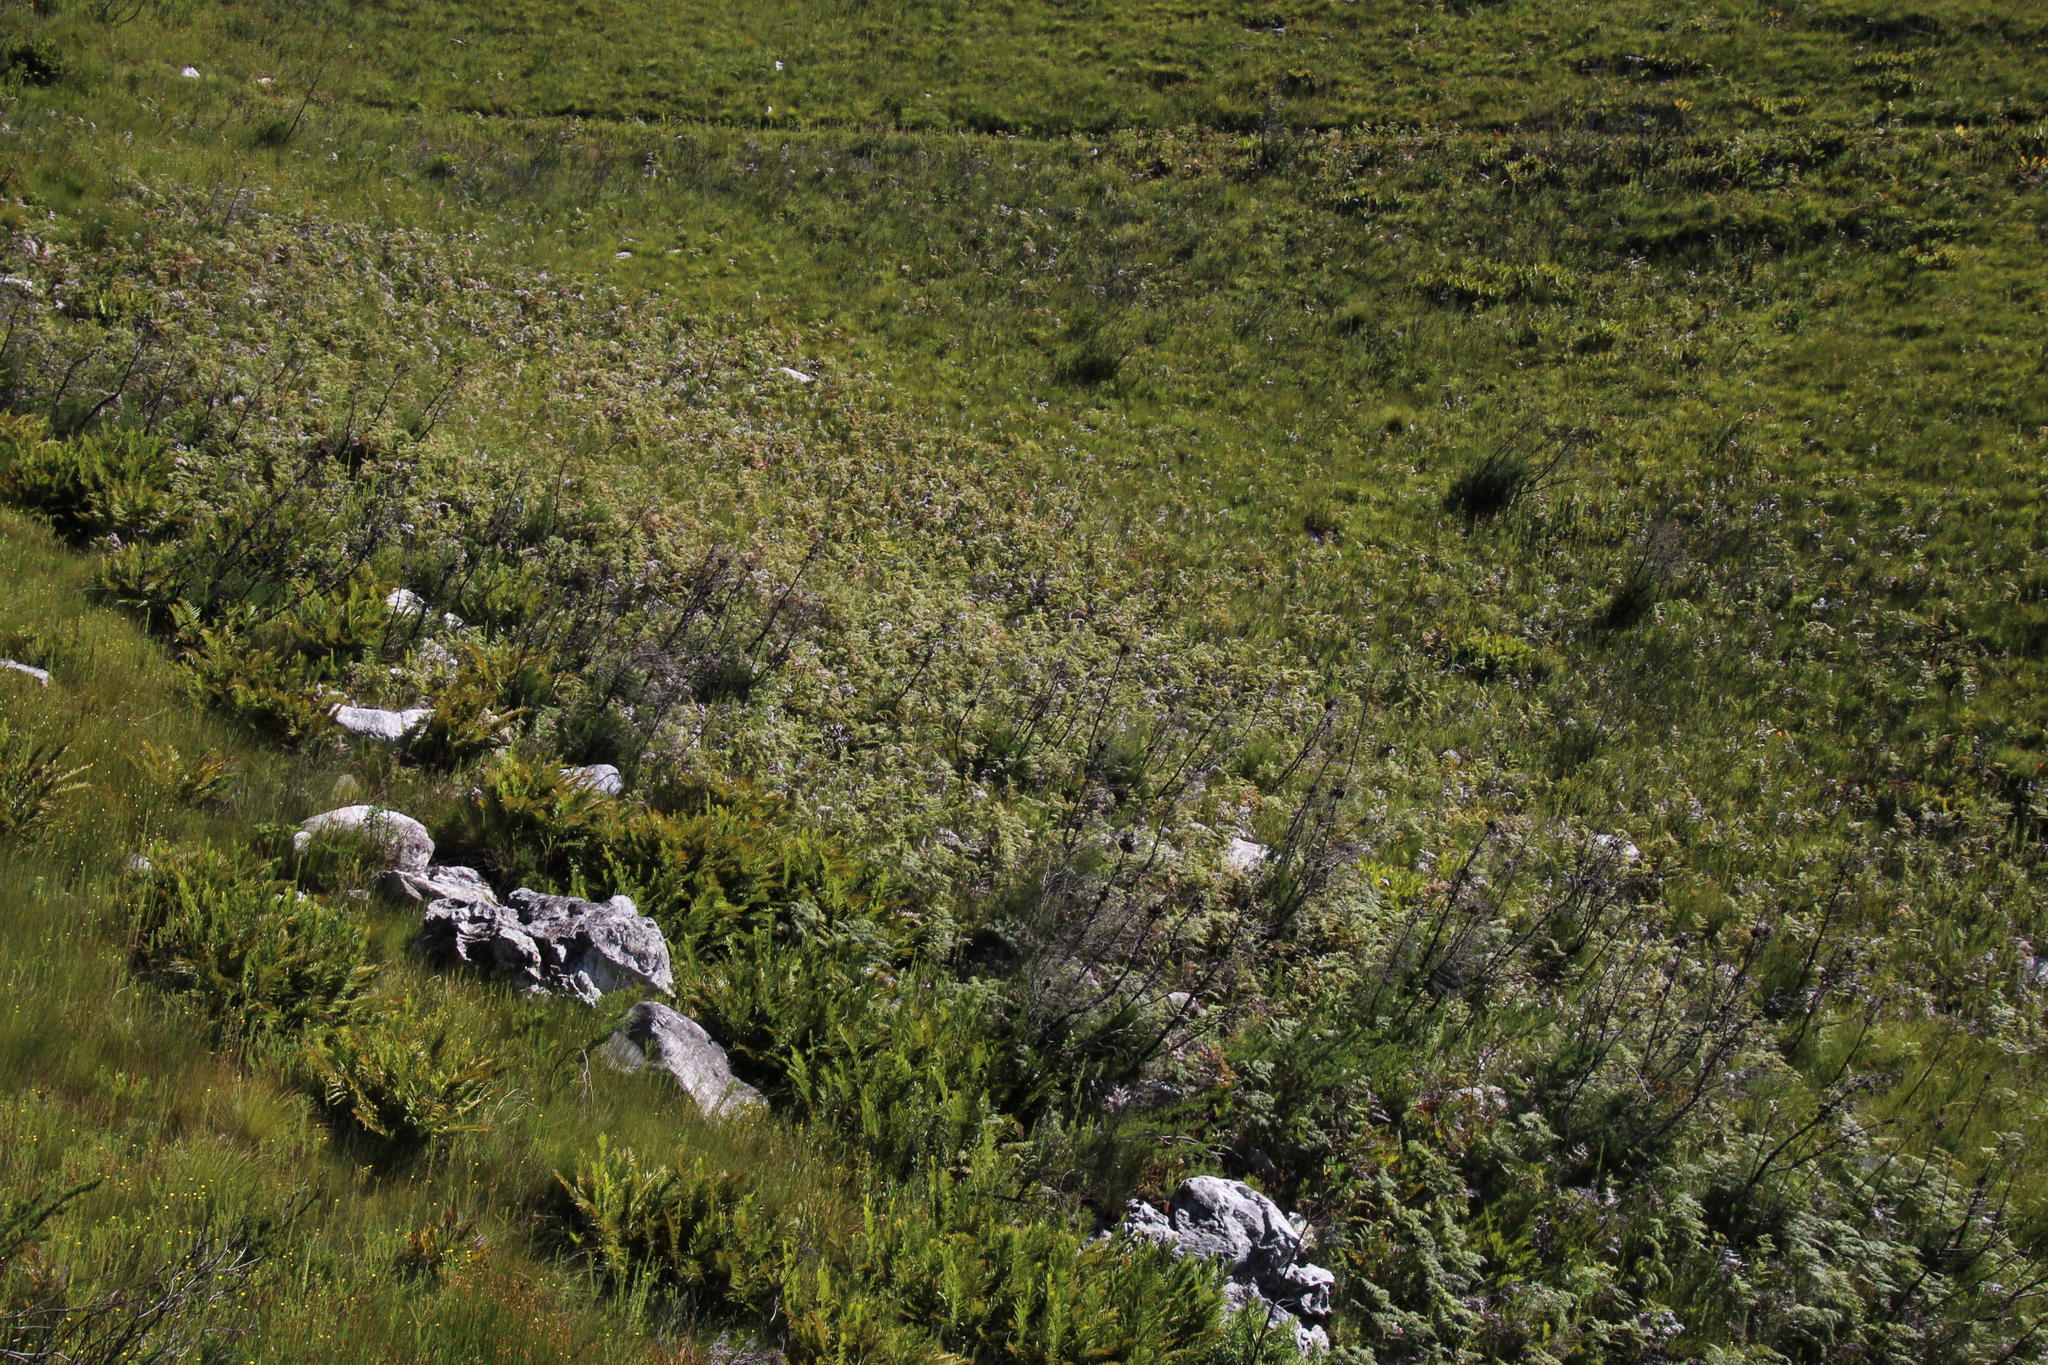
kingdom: Plantae
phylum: Tracheophyta
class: Polypodiopsida
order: Polypodiales
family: Dennstaedtiaceae
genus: Pteridium
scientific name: Pteridium aquilinum
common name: Bracken
